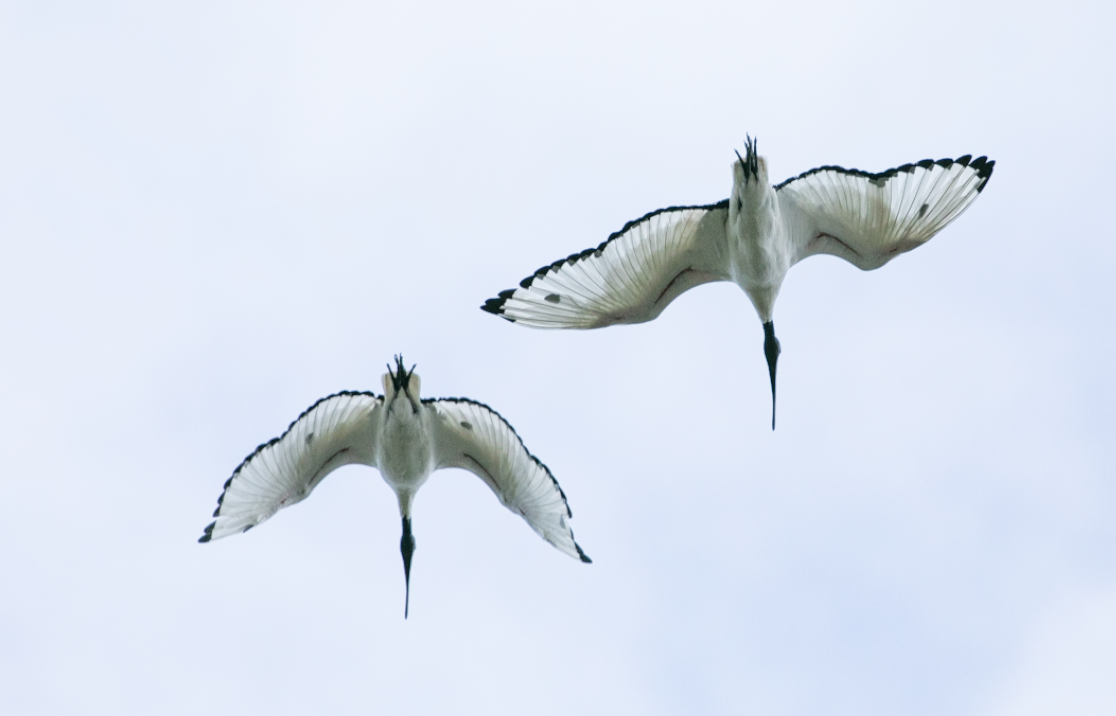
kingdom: Animalia
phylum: Chordata
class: Aves
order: Pelecaniformes
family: Threskiornithidae
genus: Threskiornis
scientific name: Threskiornis aethiopicus
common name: Sacred ibis
